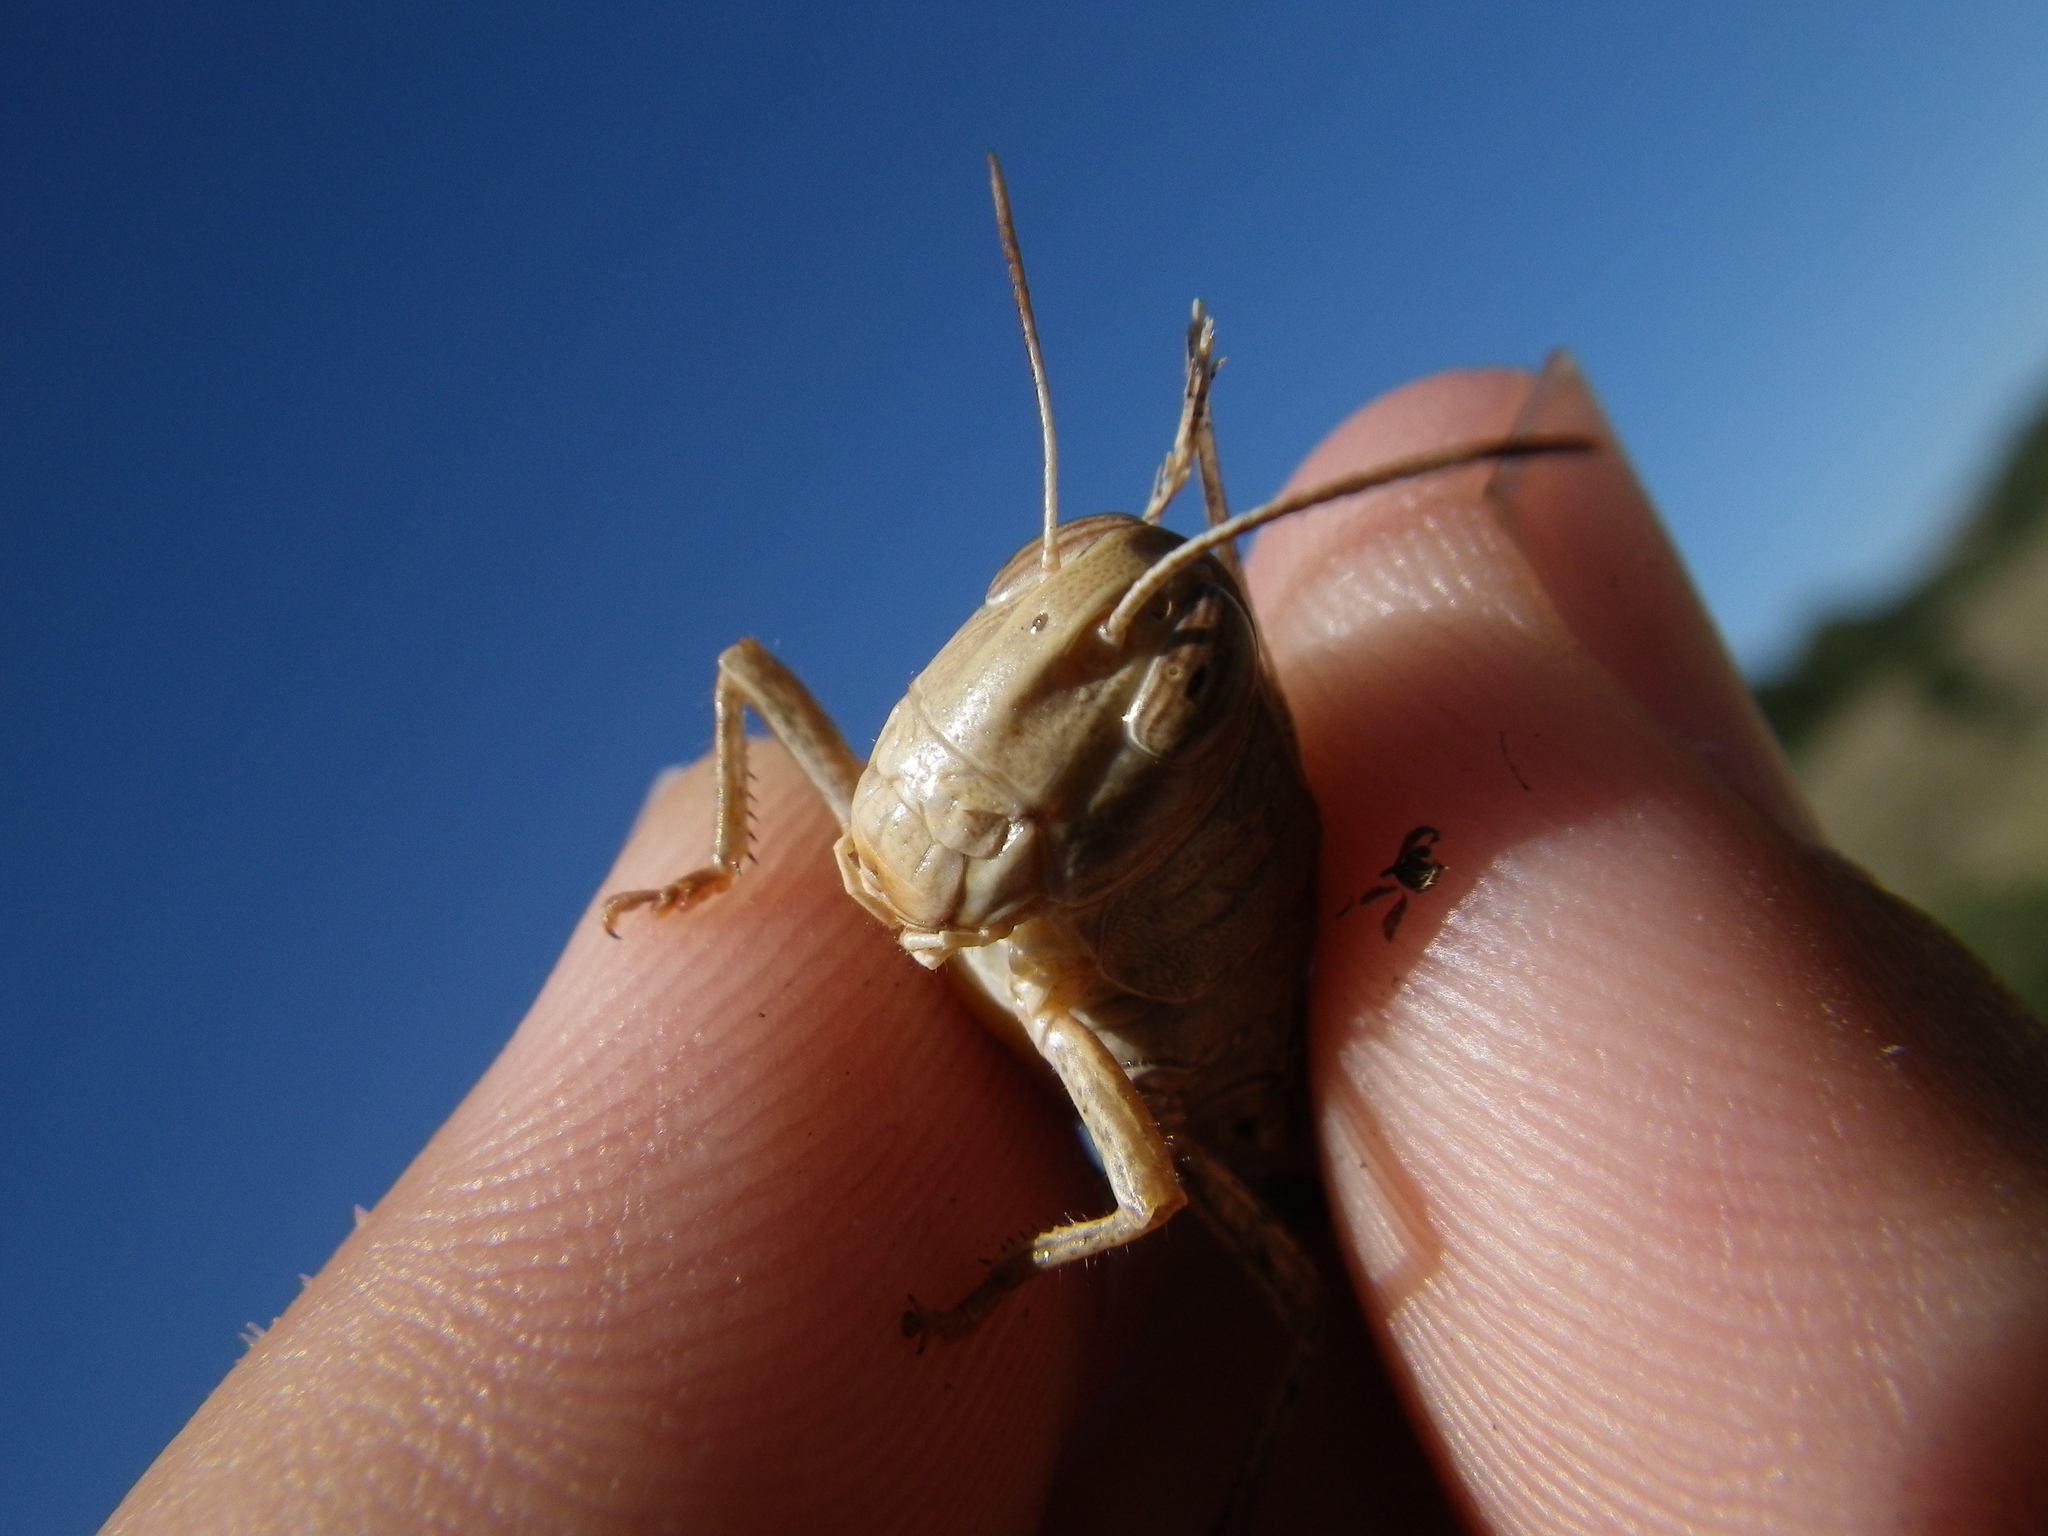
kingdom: Animalia
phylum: Arthropoda
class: Insecta
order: Orthoptera
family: Acrididae
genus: Calliptamus
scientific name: Calliptamus wattenwylianus
